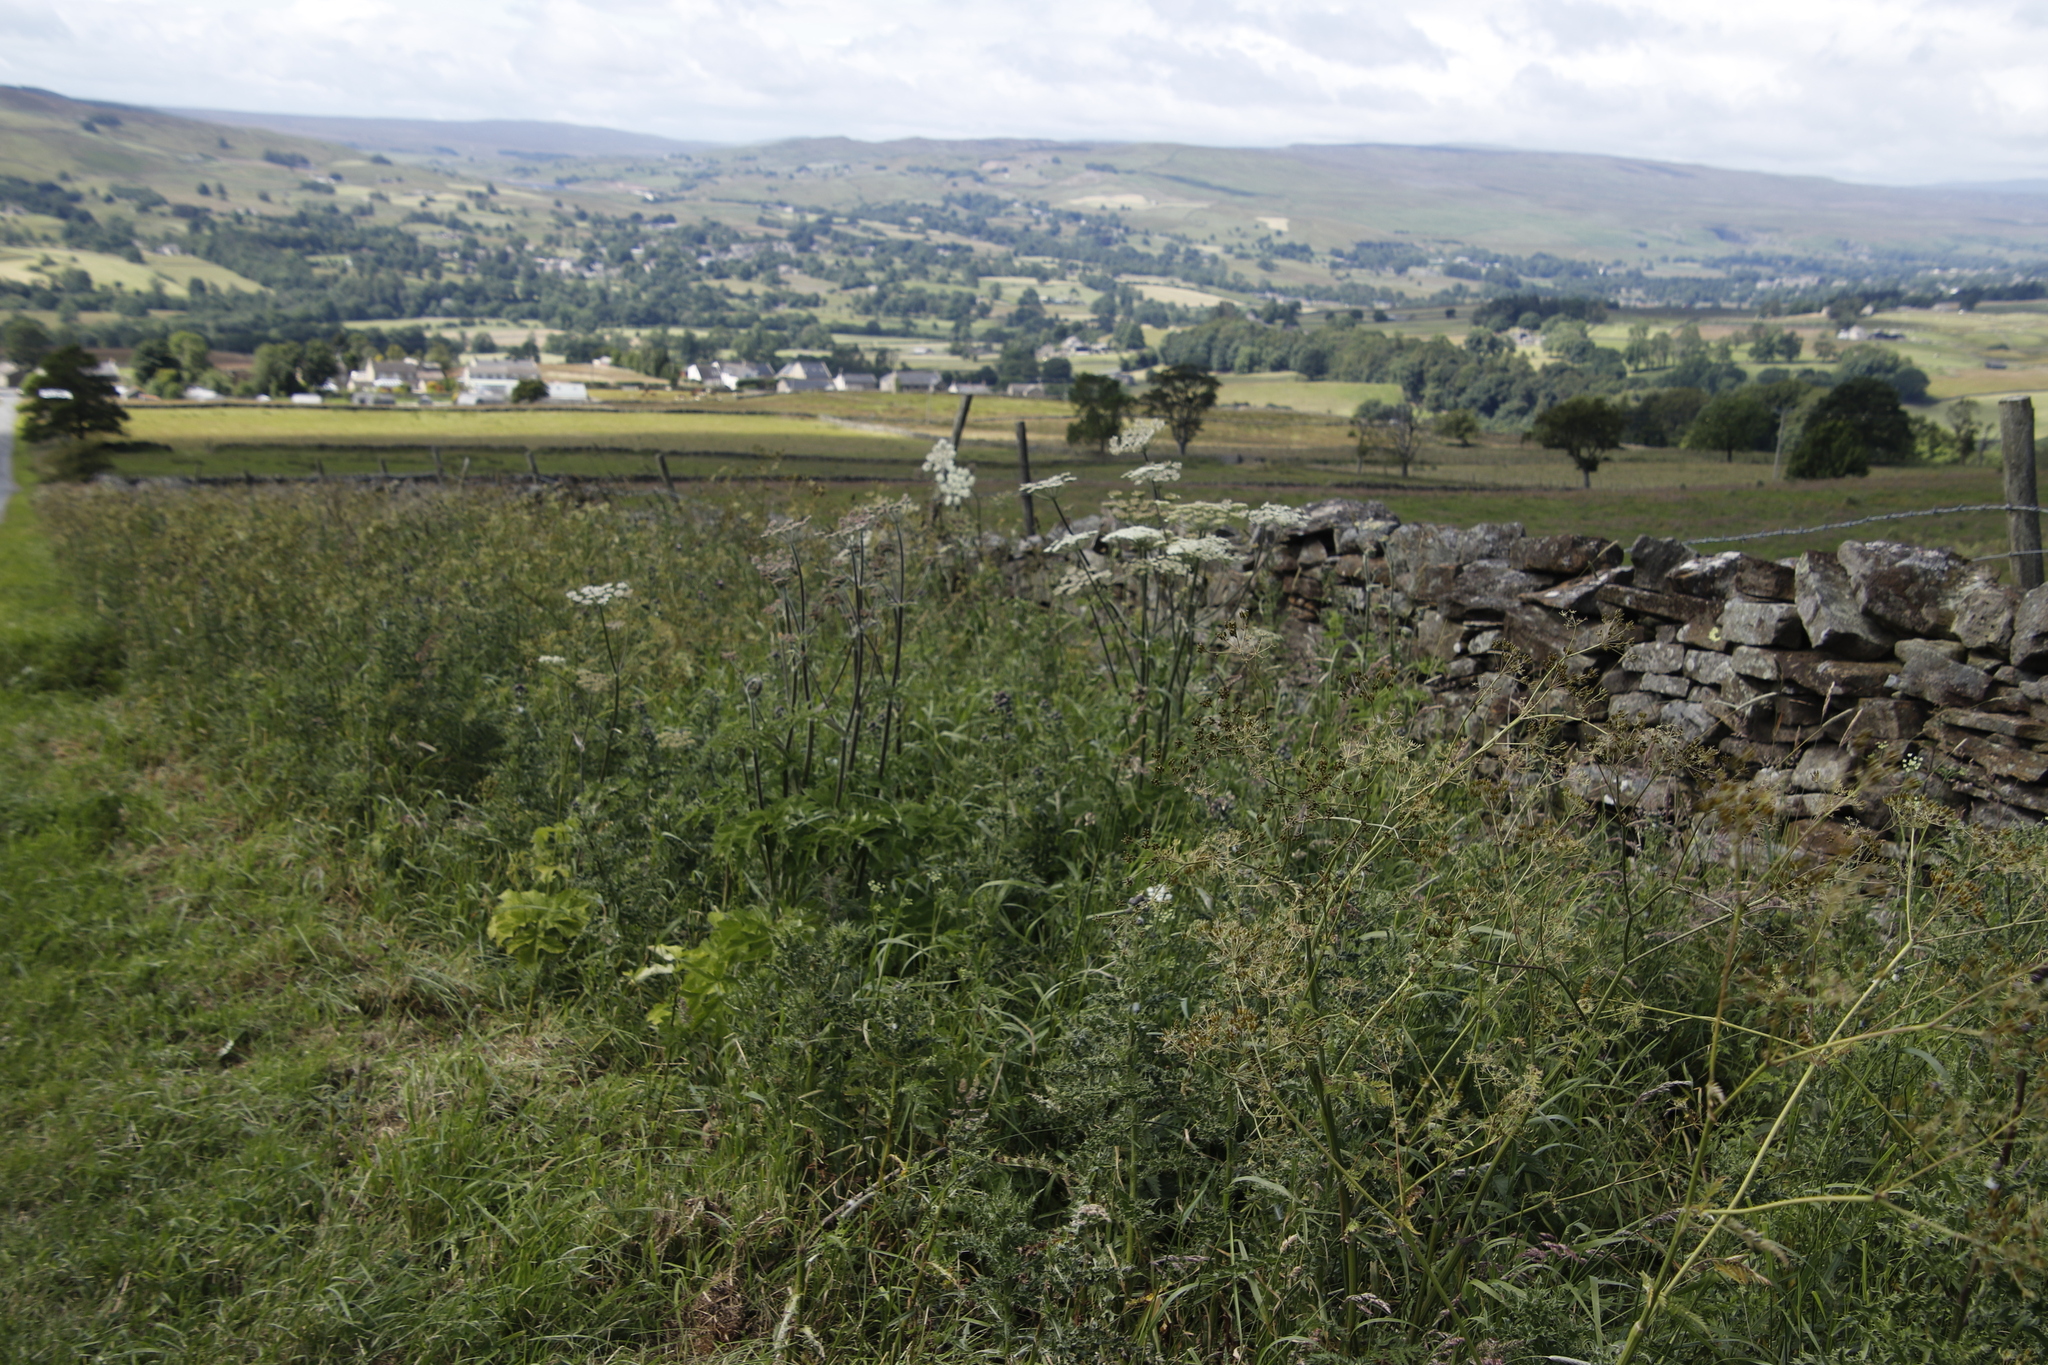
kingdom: Plantae
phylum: Tracheophyta
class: Magnoliopsida
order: Apiales
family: Apiaceae
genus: Heracleum
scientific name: Heracleum sphondylium
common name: Hogweed
